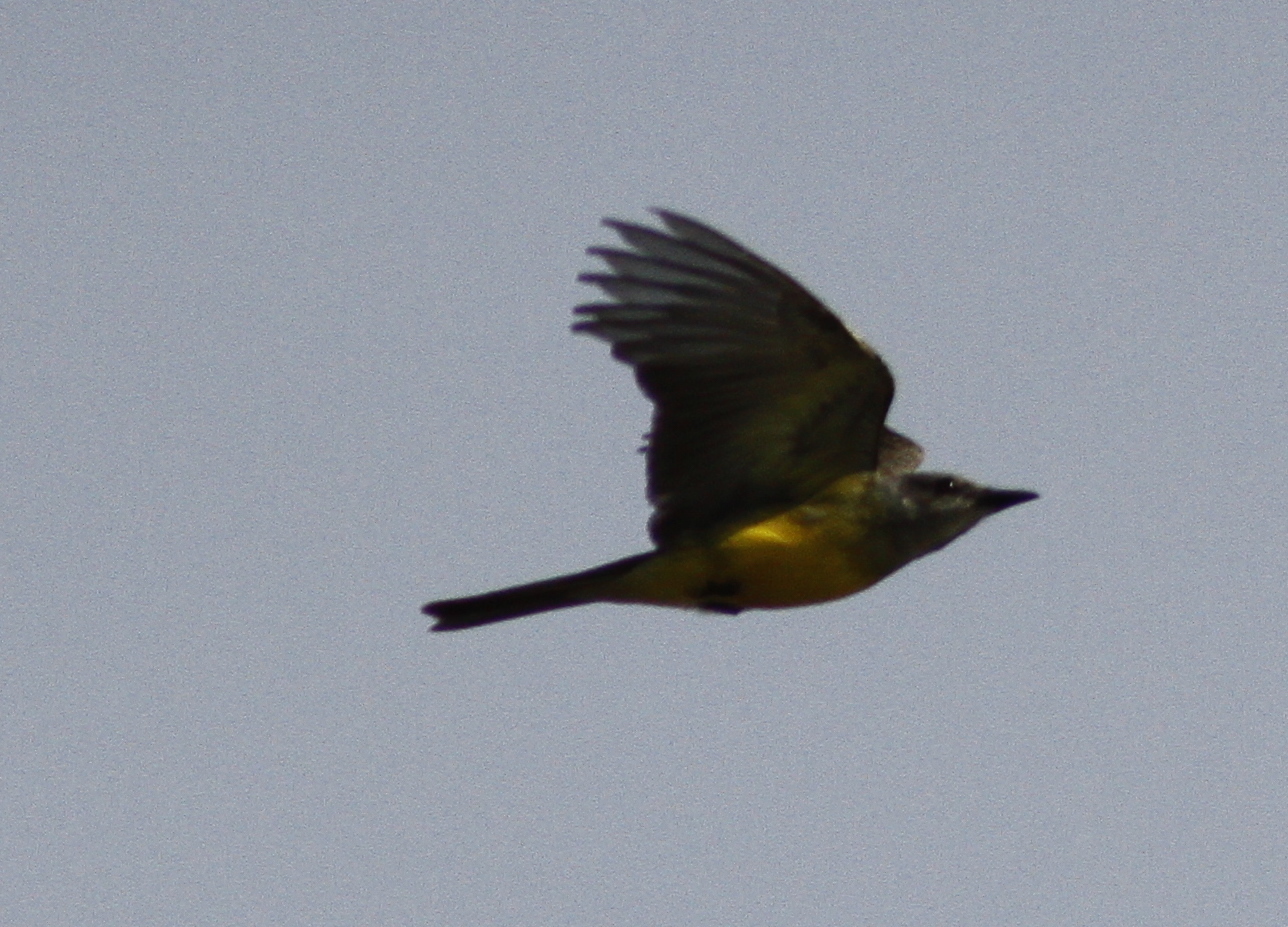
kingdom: Animalia
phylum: Chordata
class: Aves
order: Passeriformes
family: Tyrannidae
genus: Tyrannus
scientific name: Tyrannus melancholicus
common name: Tropical kingbird
